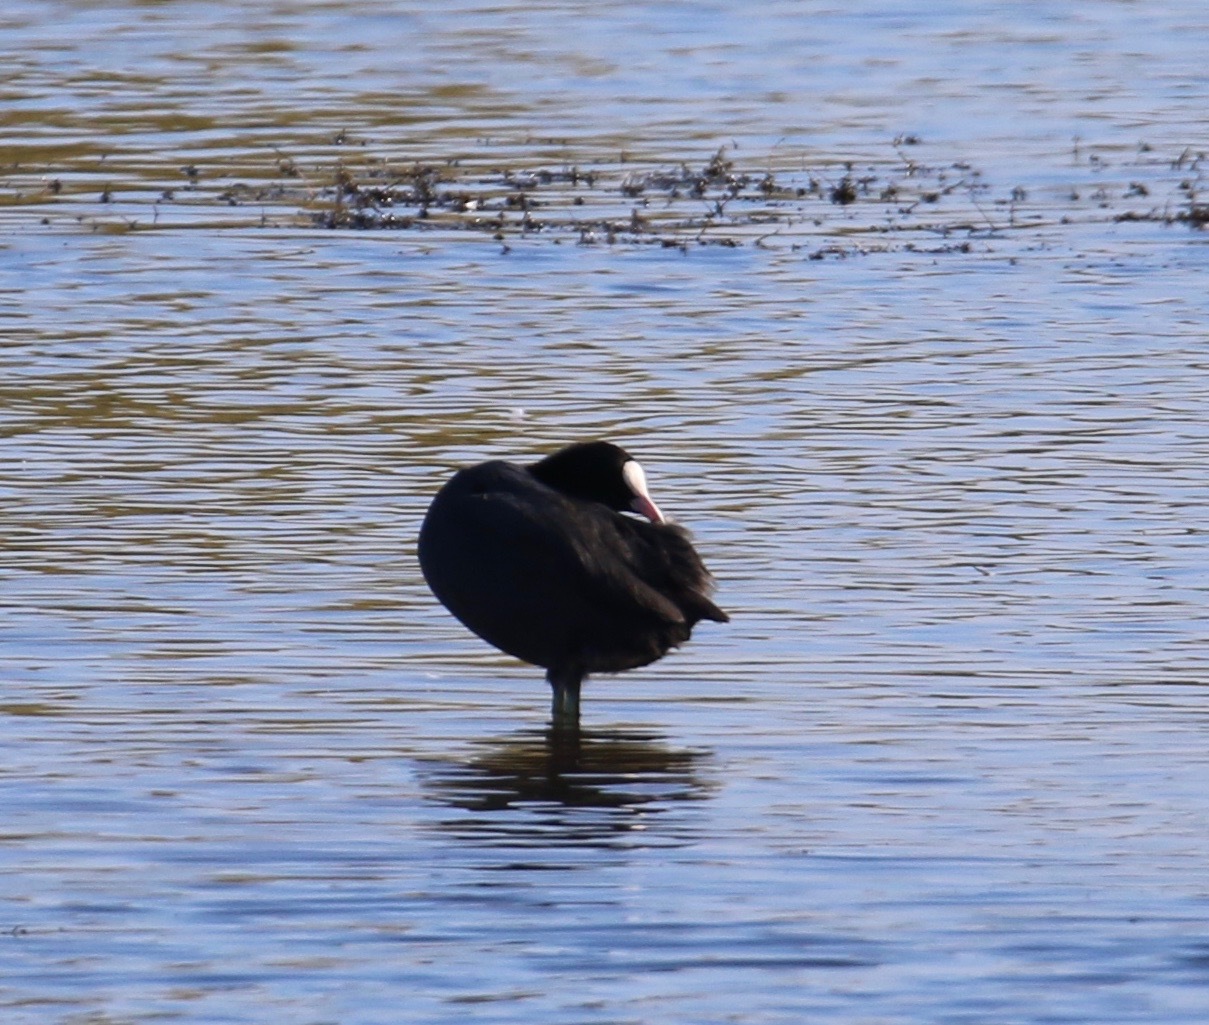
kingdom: Animalia
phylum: Chordata
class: Aves
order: Gruiformes
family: Rallidae
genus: Fulica
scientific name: Fulica atra
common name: Eurasian coot
